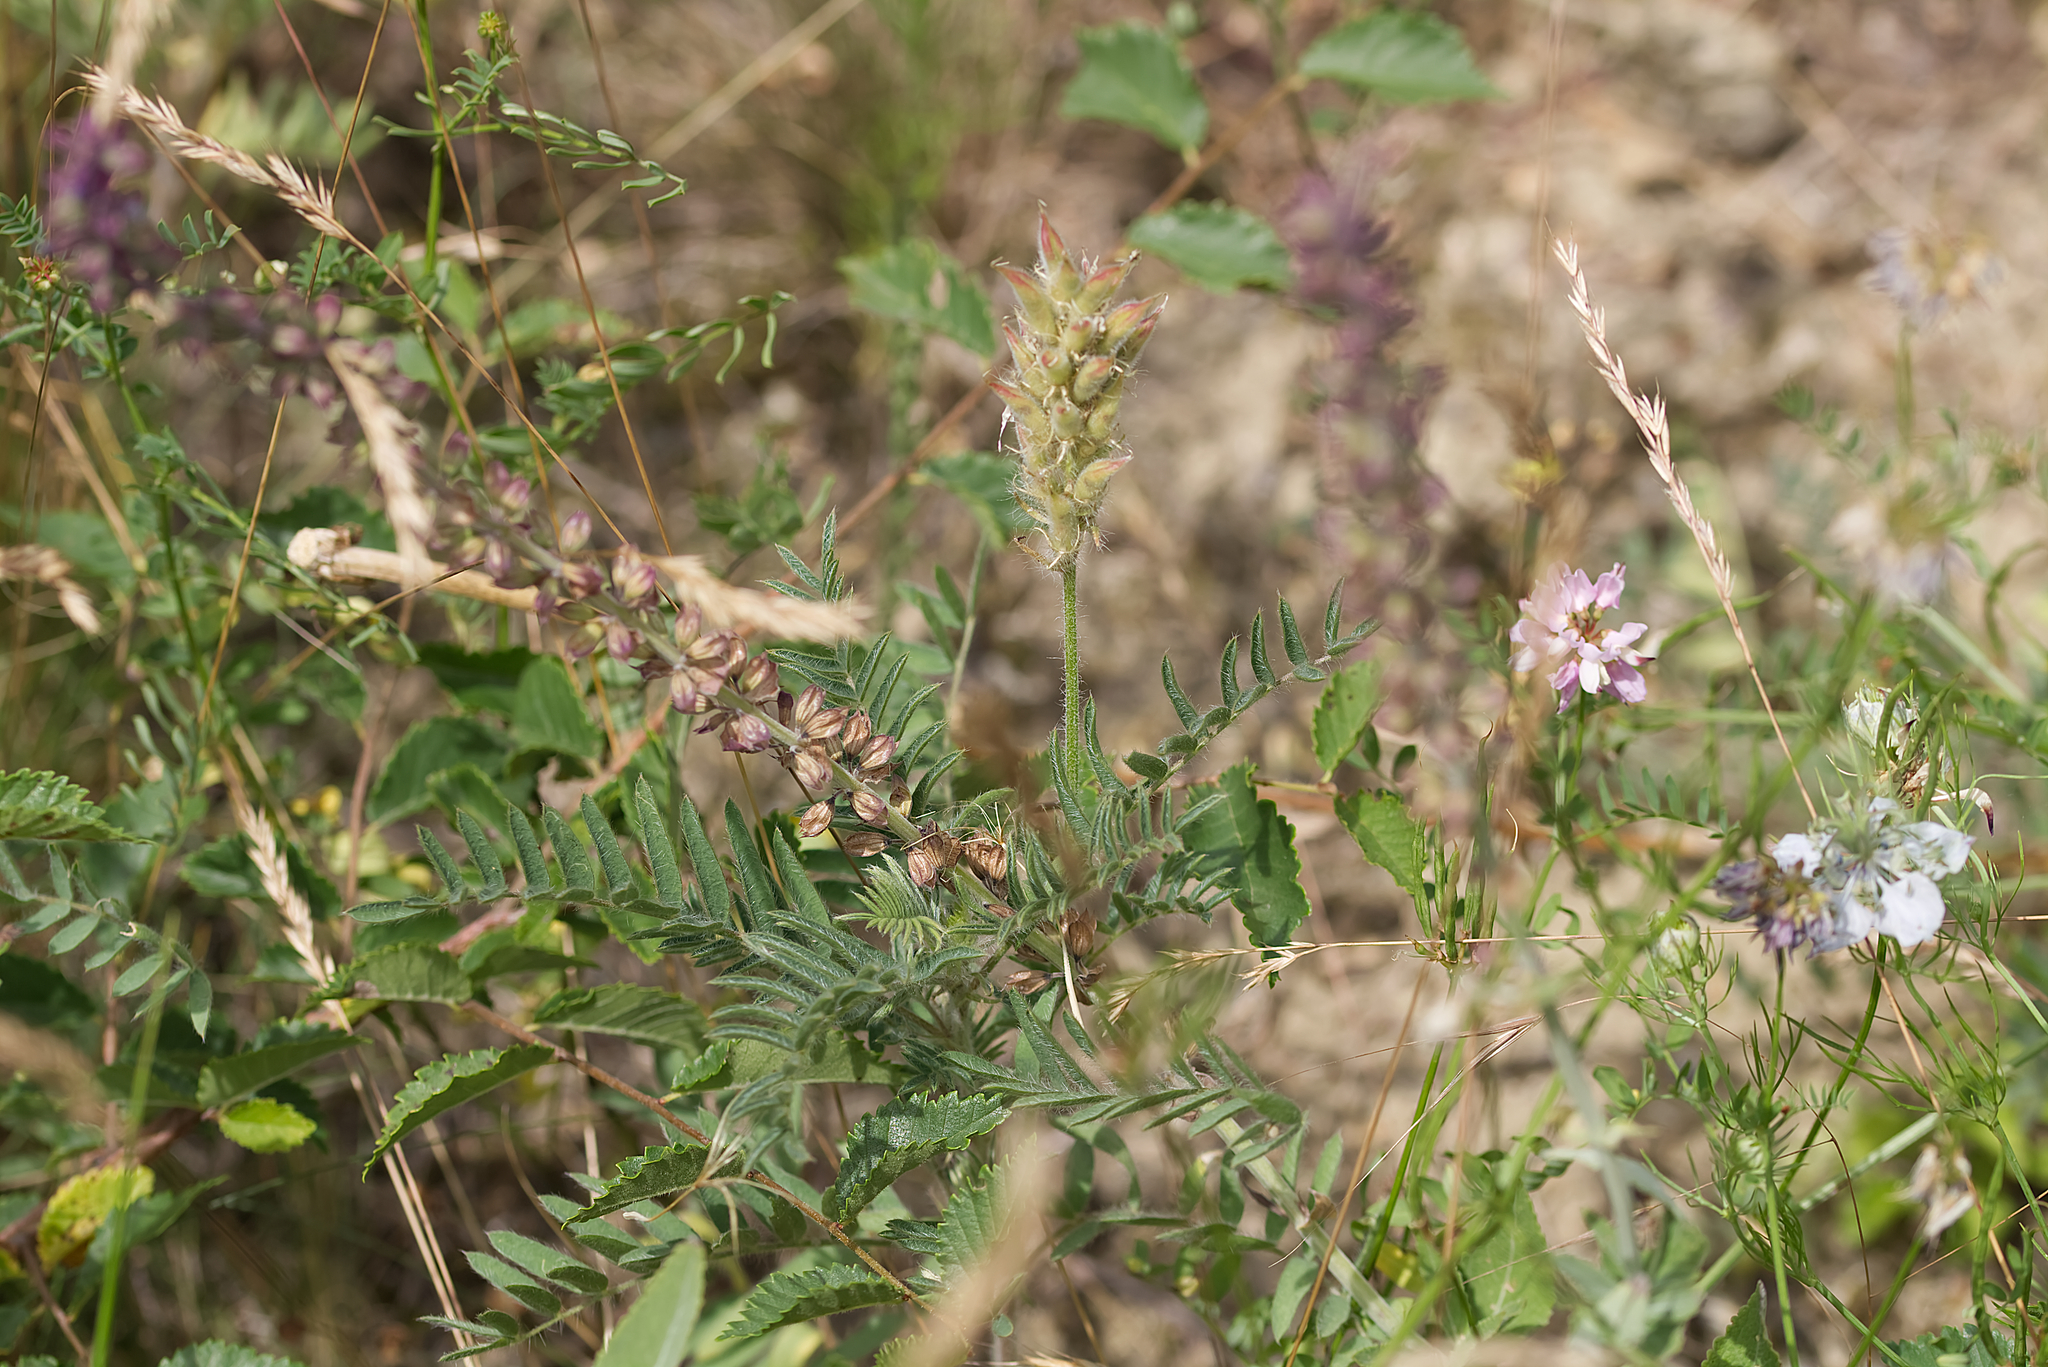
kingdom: Plantae
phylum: Tracheophyta
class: Magnoliopsida
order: Fabales
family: Fabaceae
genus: Oxytropis
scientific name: Oxytropis pilosa
